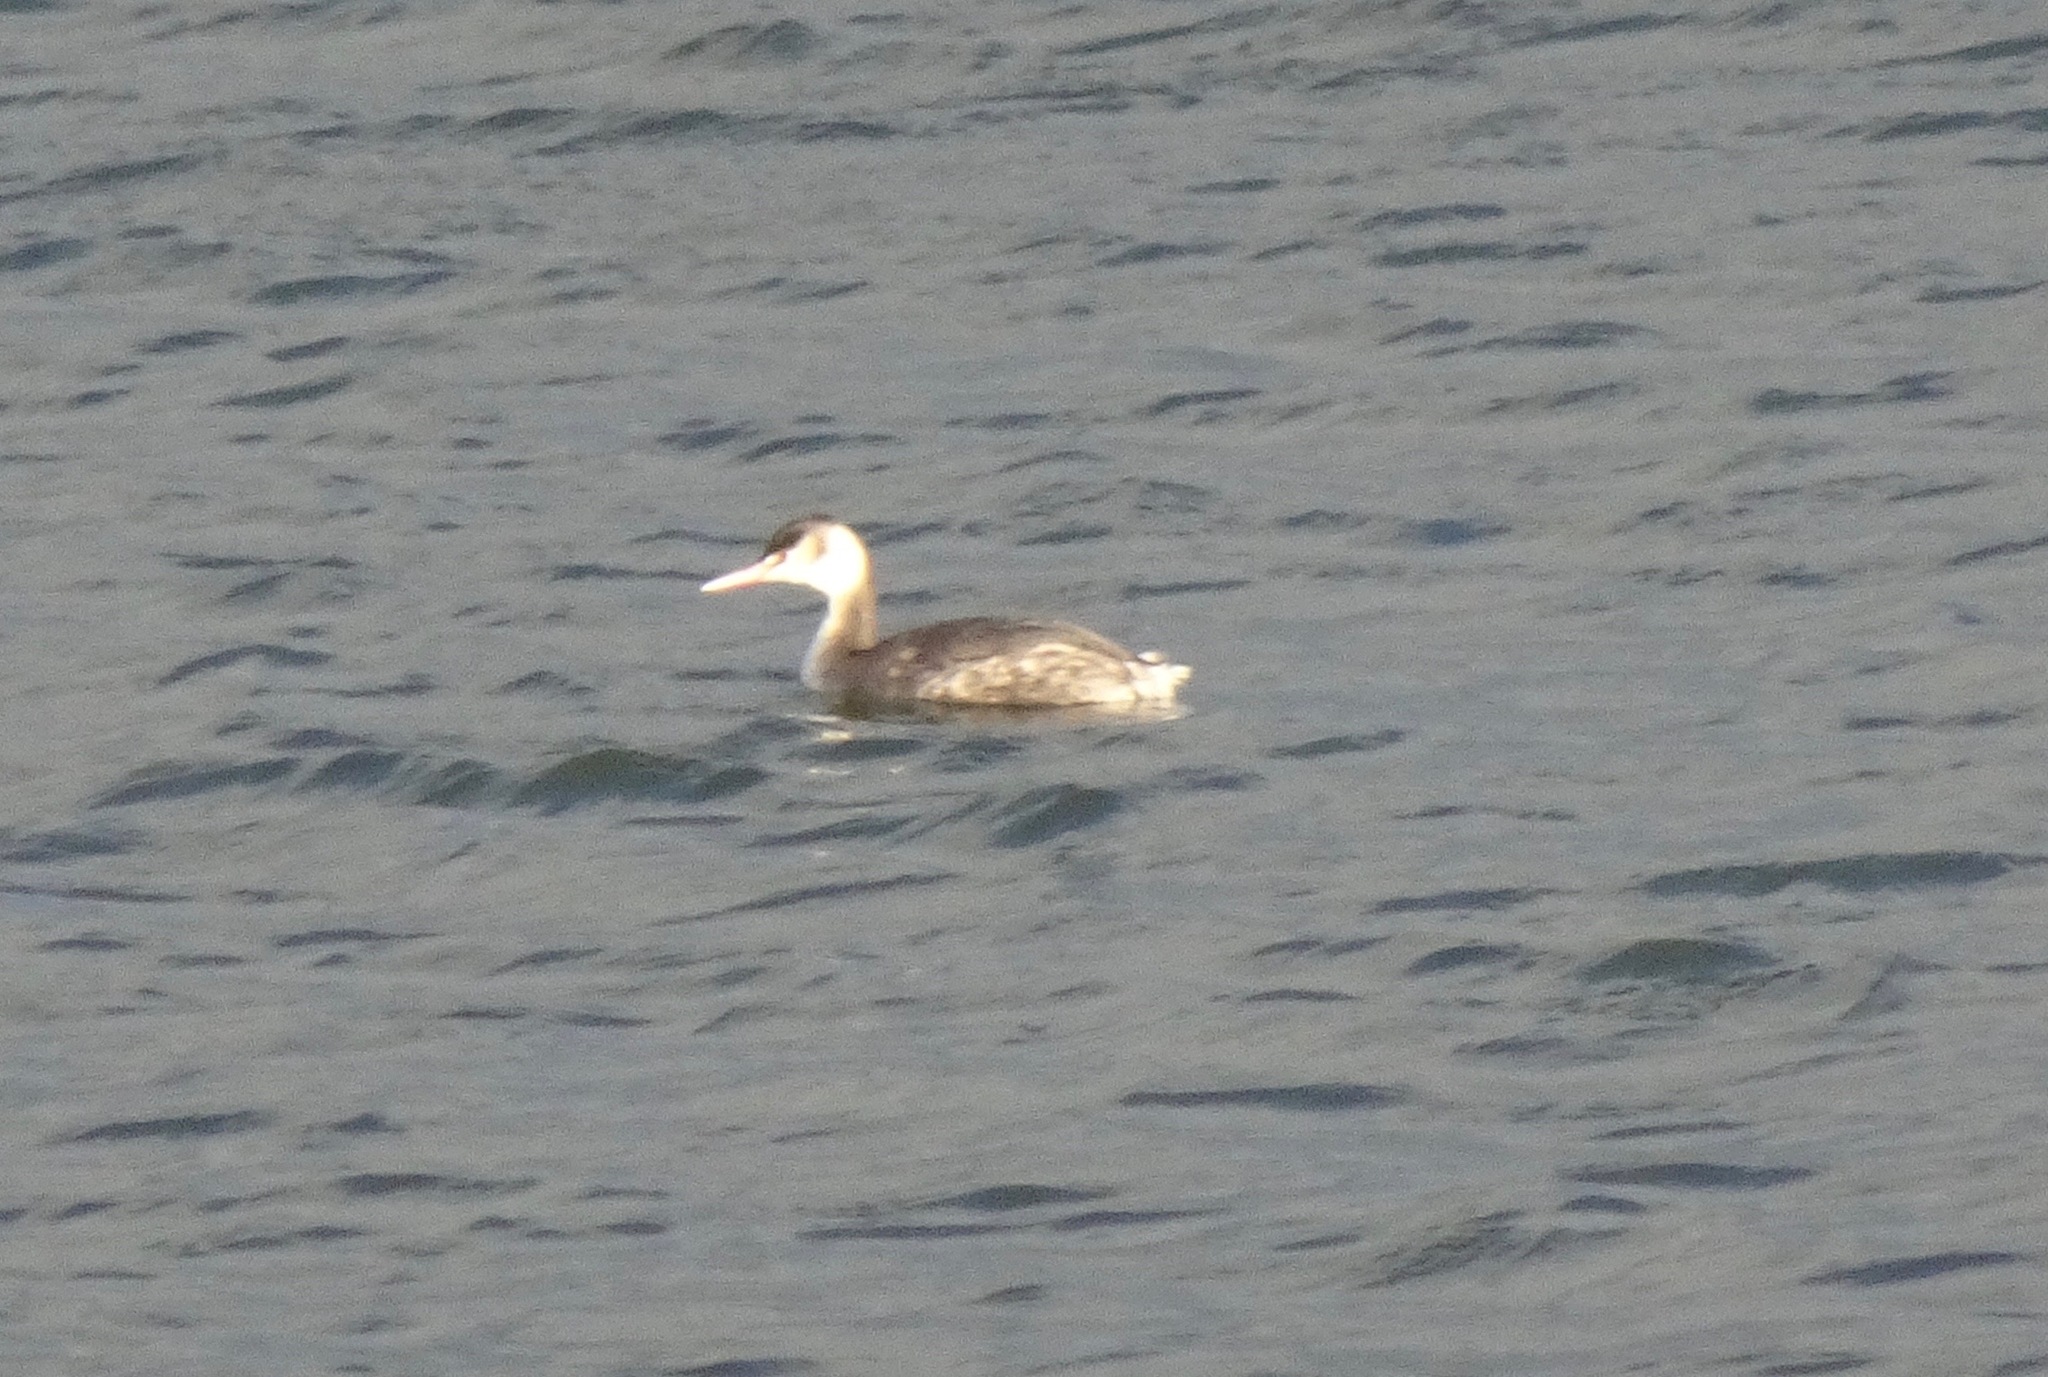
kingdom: Animalia
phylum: Chordata
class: Aves
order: Podicipediformes
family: Podicipedidae
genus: Podiceps
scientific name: Podiceps cristatus
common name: Great crested grebe
